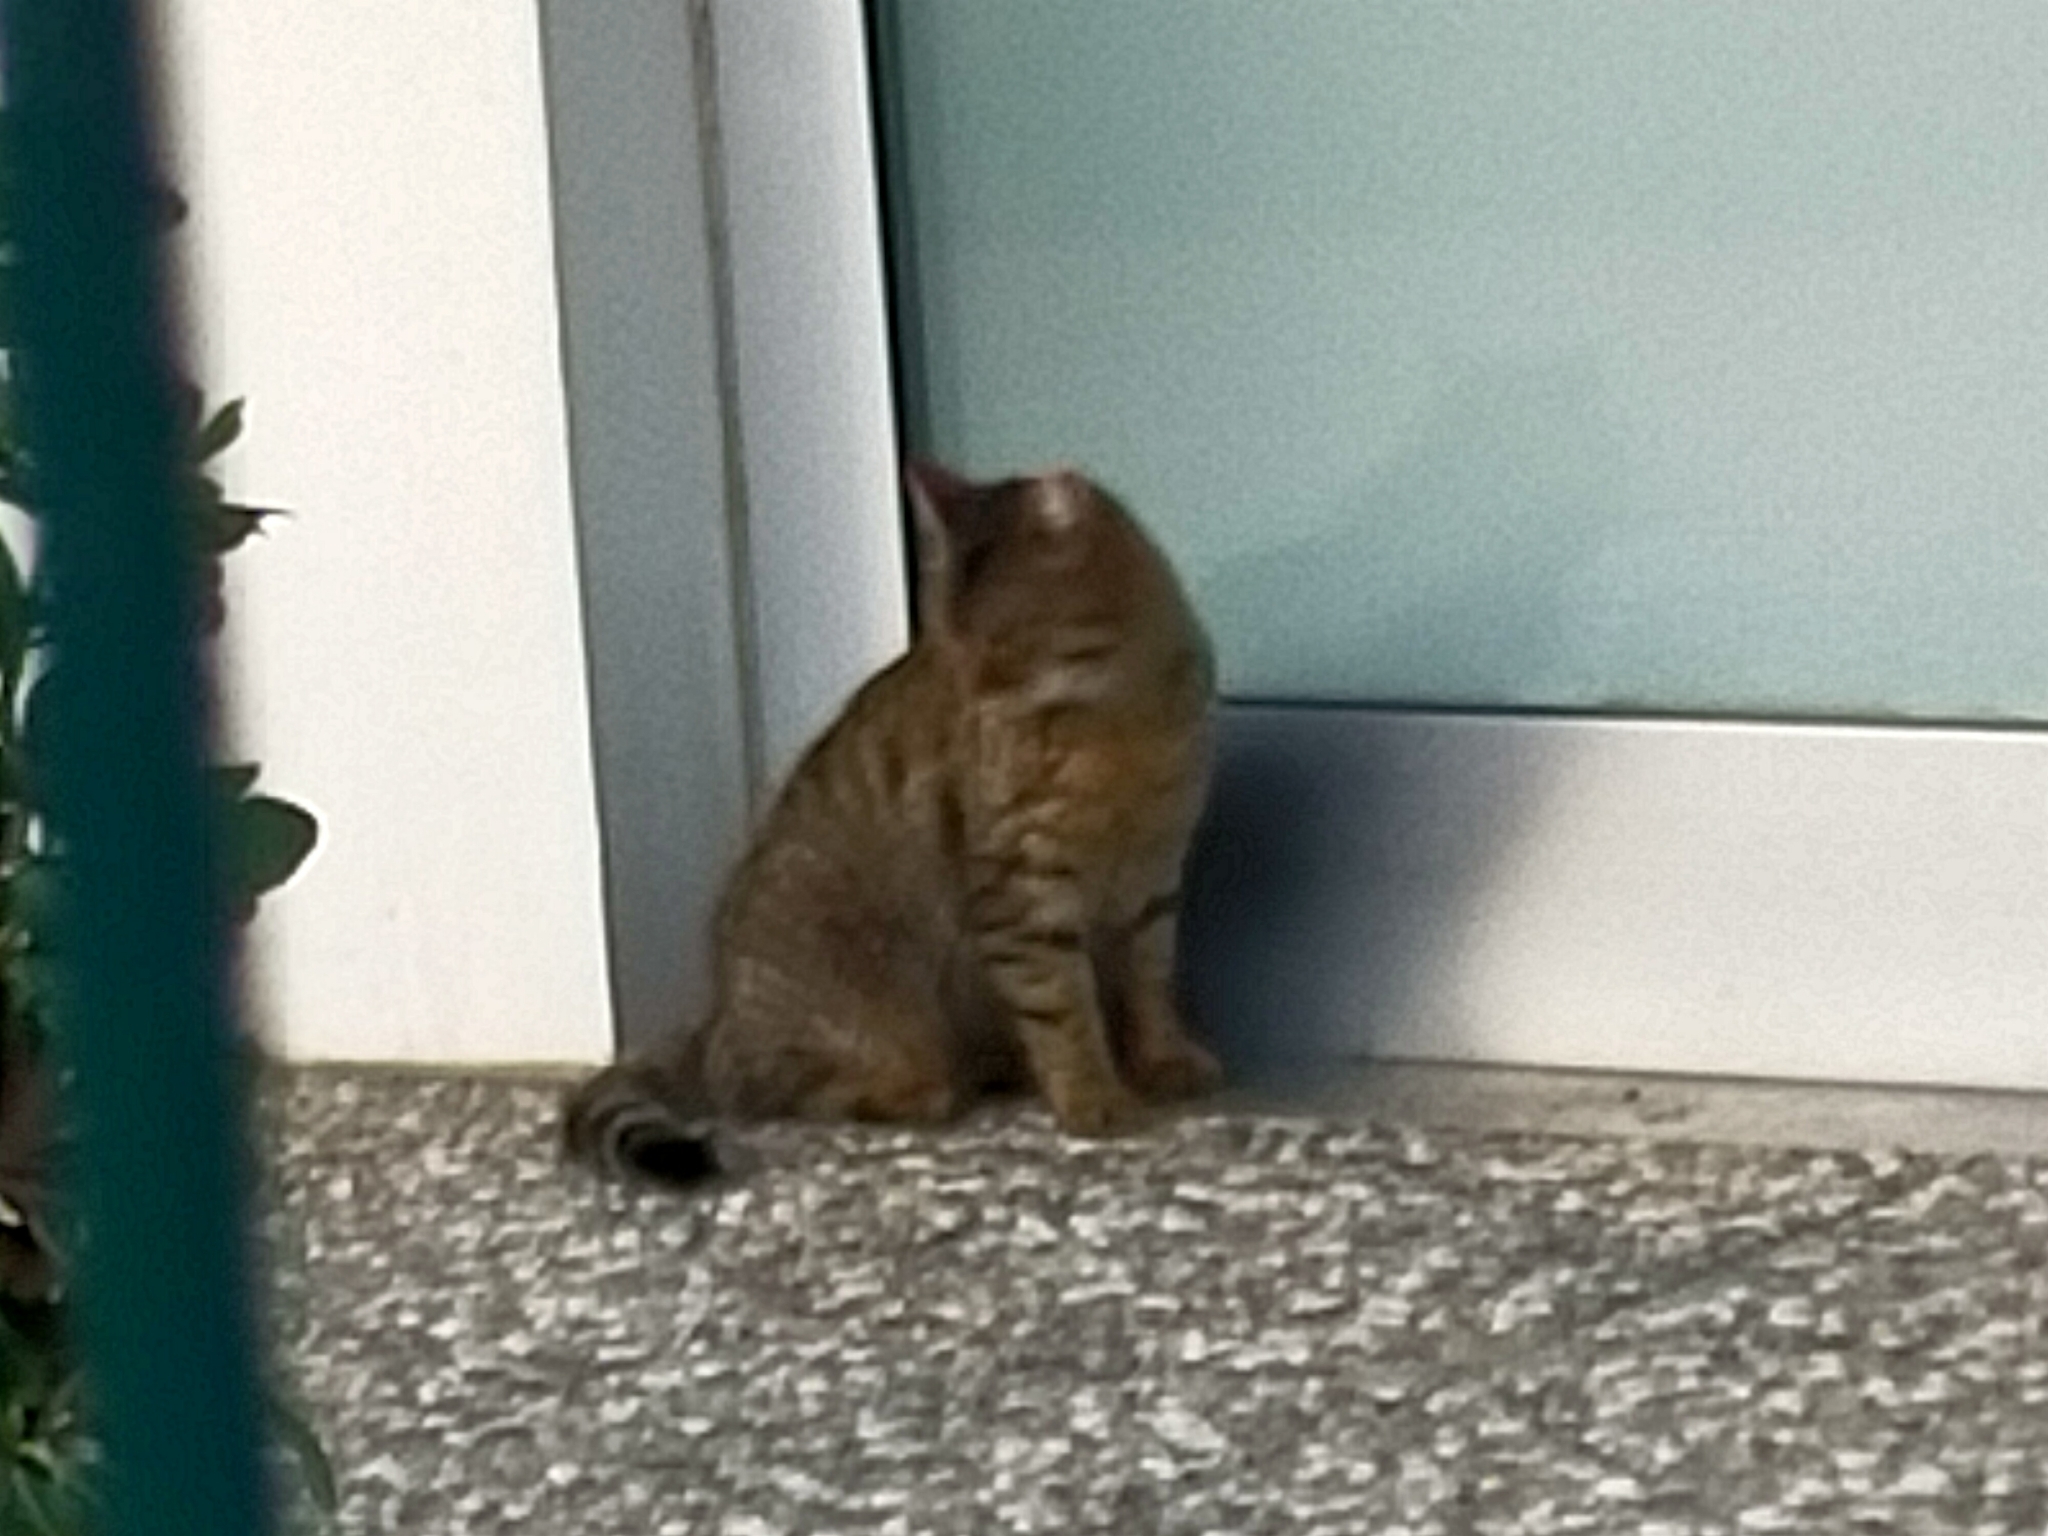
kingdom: Animalia
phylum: Chordata
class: Mammalia
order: Carnivora
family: Felidae
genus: Felis
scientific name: Felis catus
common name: Domestic cat
